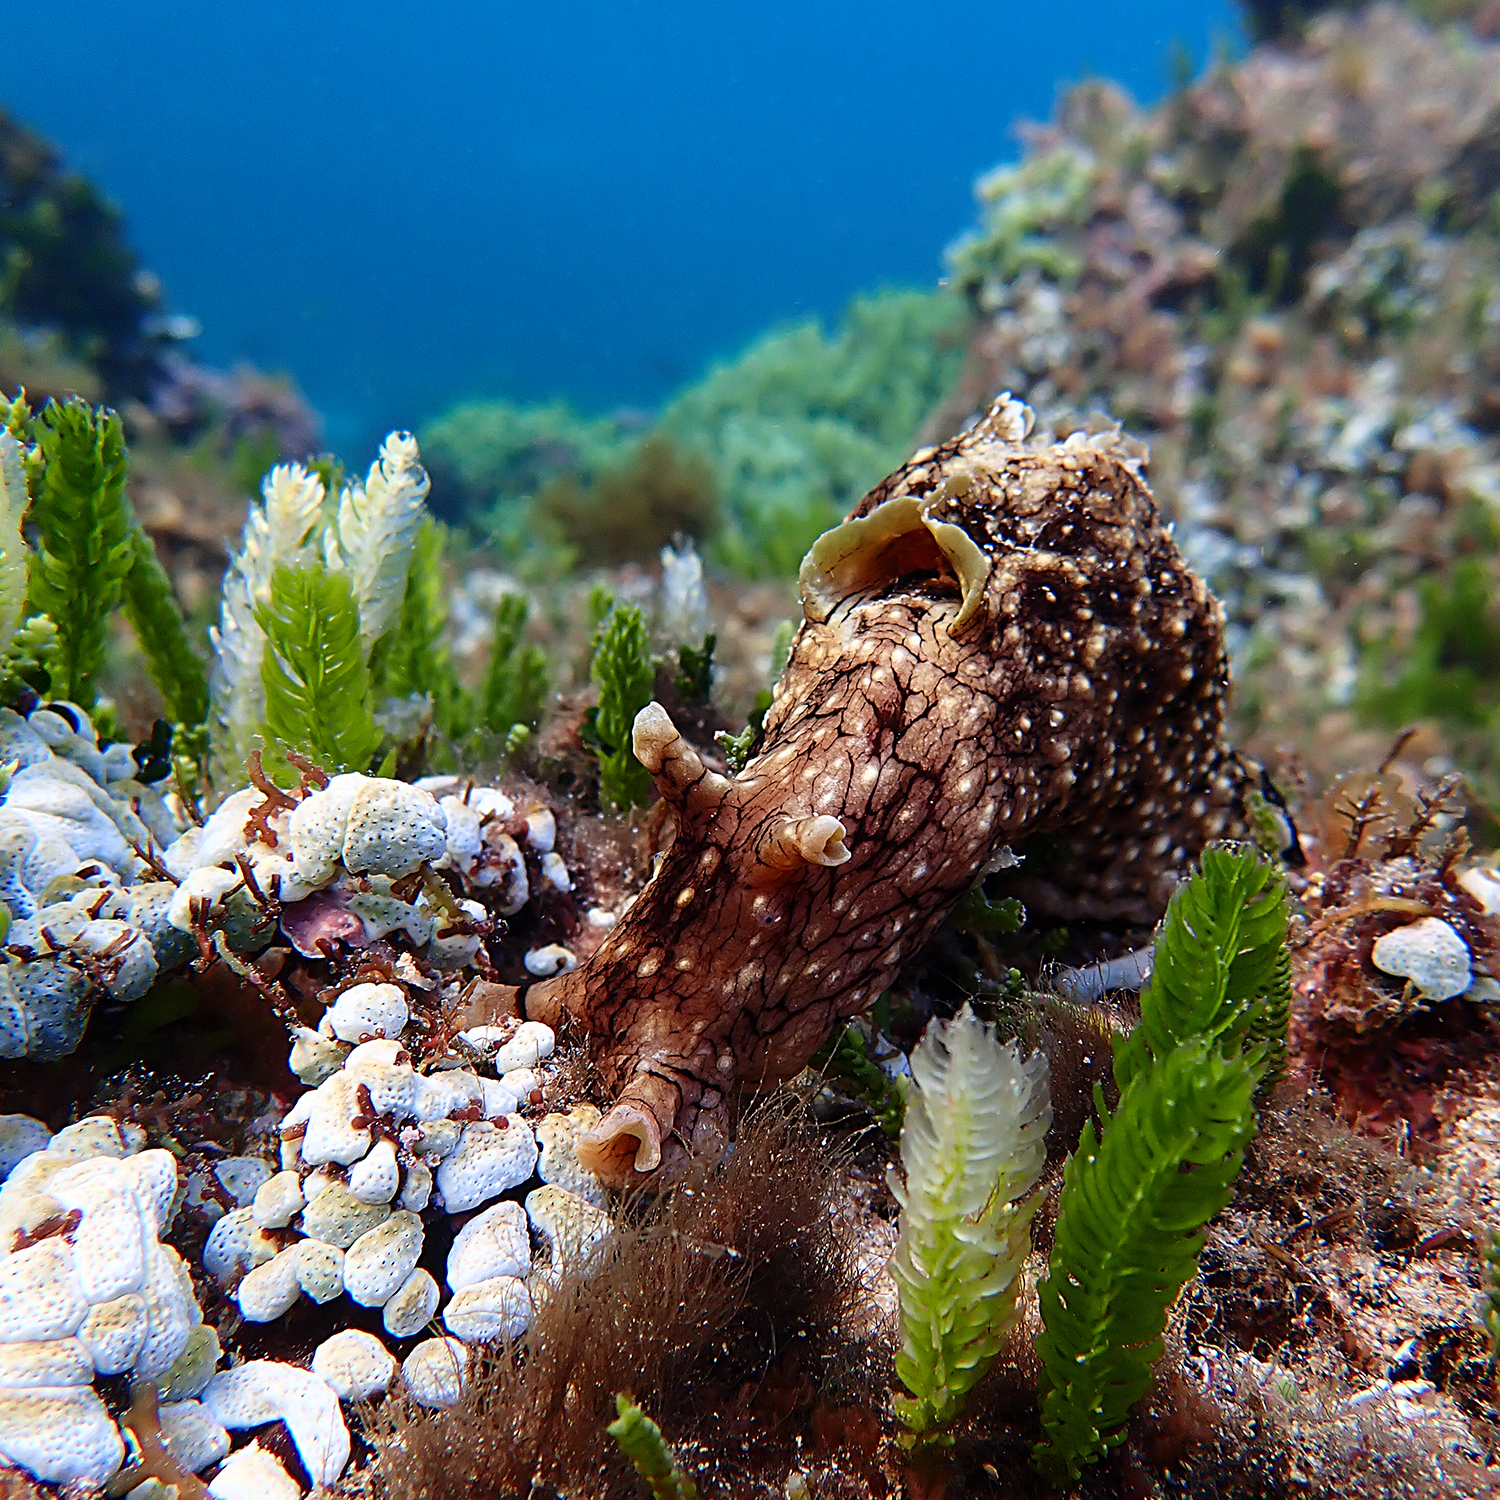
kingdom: Animalia
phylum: Mollusca
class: Gastropoda
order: Aplysiida
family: Aplysiidae
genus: Aplysia
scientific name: Aplysia argus
